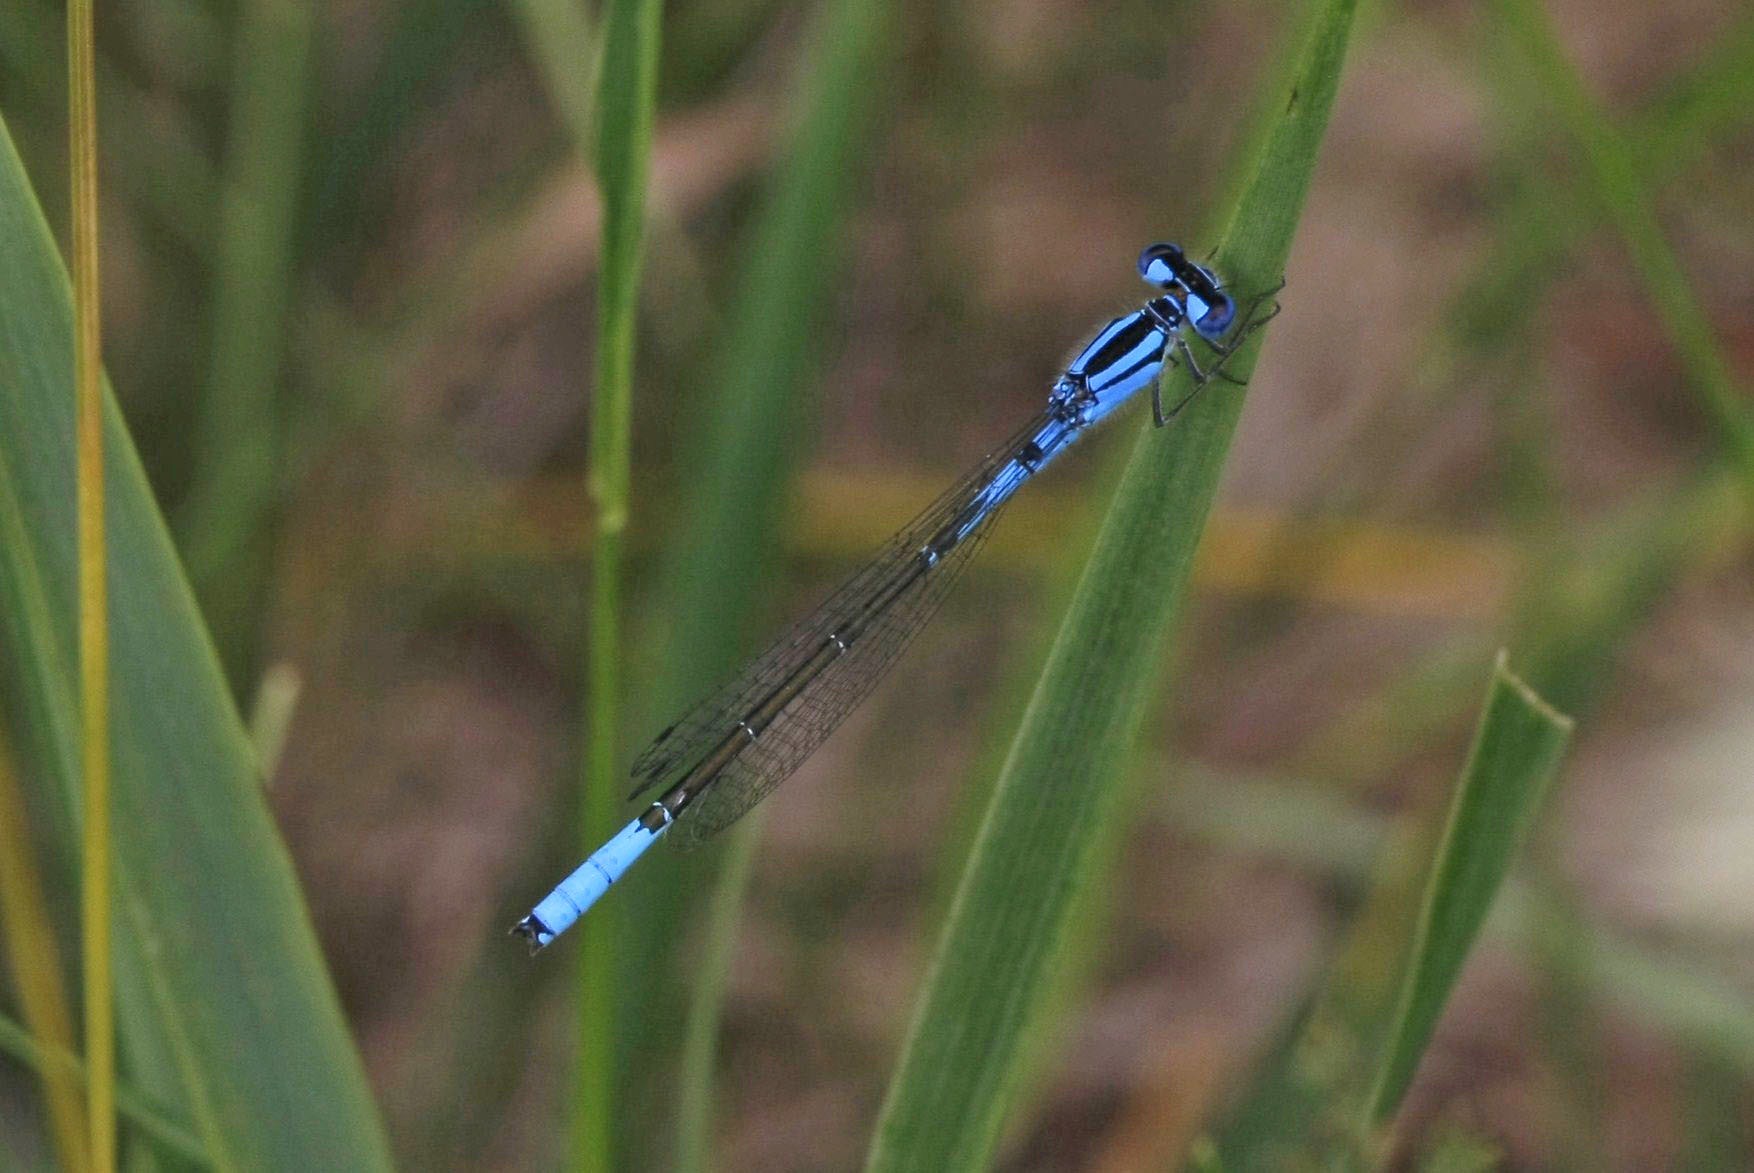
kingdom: Animalia
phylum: Arthropoda
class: Insecta
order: Odonata
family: Coenagrionidae
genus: Enallagma
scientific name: Enallagma aspersum
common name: Azure bluet
